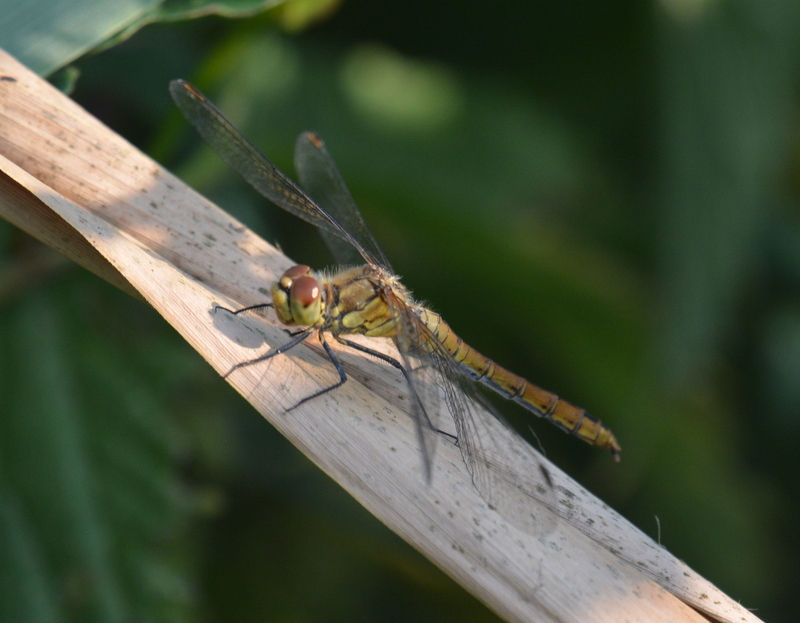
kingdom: Animalia
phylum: Arthropoda
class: Insecta
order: Odonata
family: Libellulidae
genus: Sympetrum
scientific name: Sympetrum sanguineum
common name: Ruddy darter
